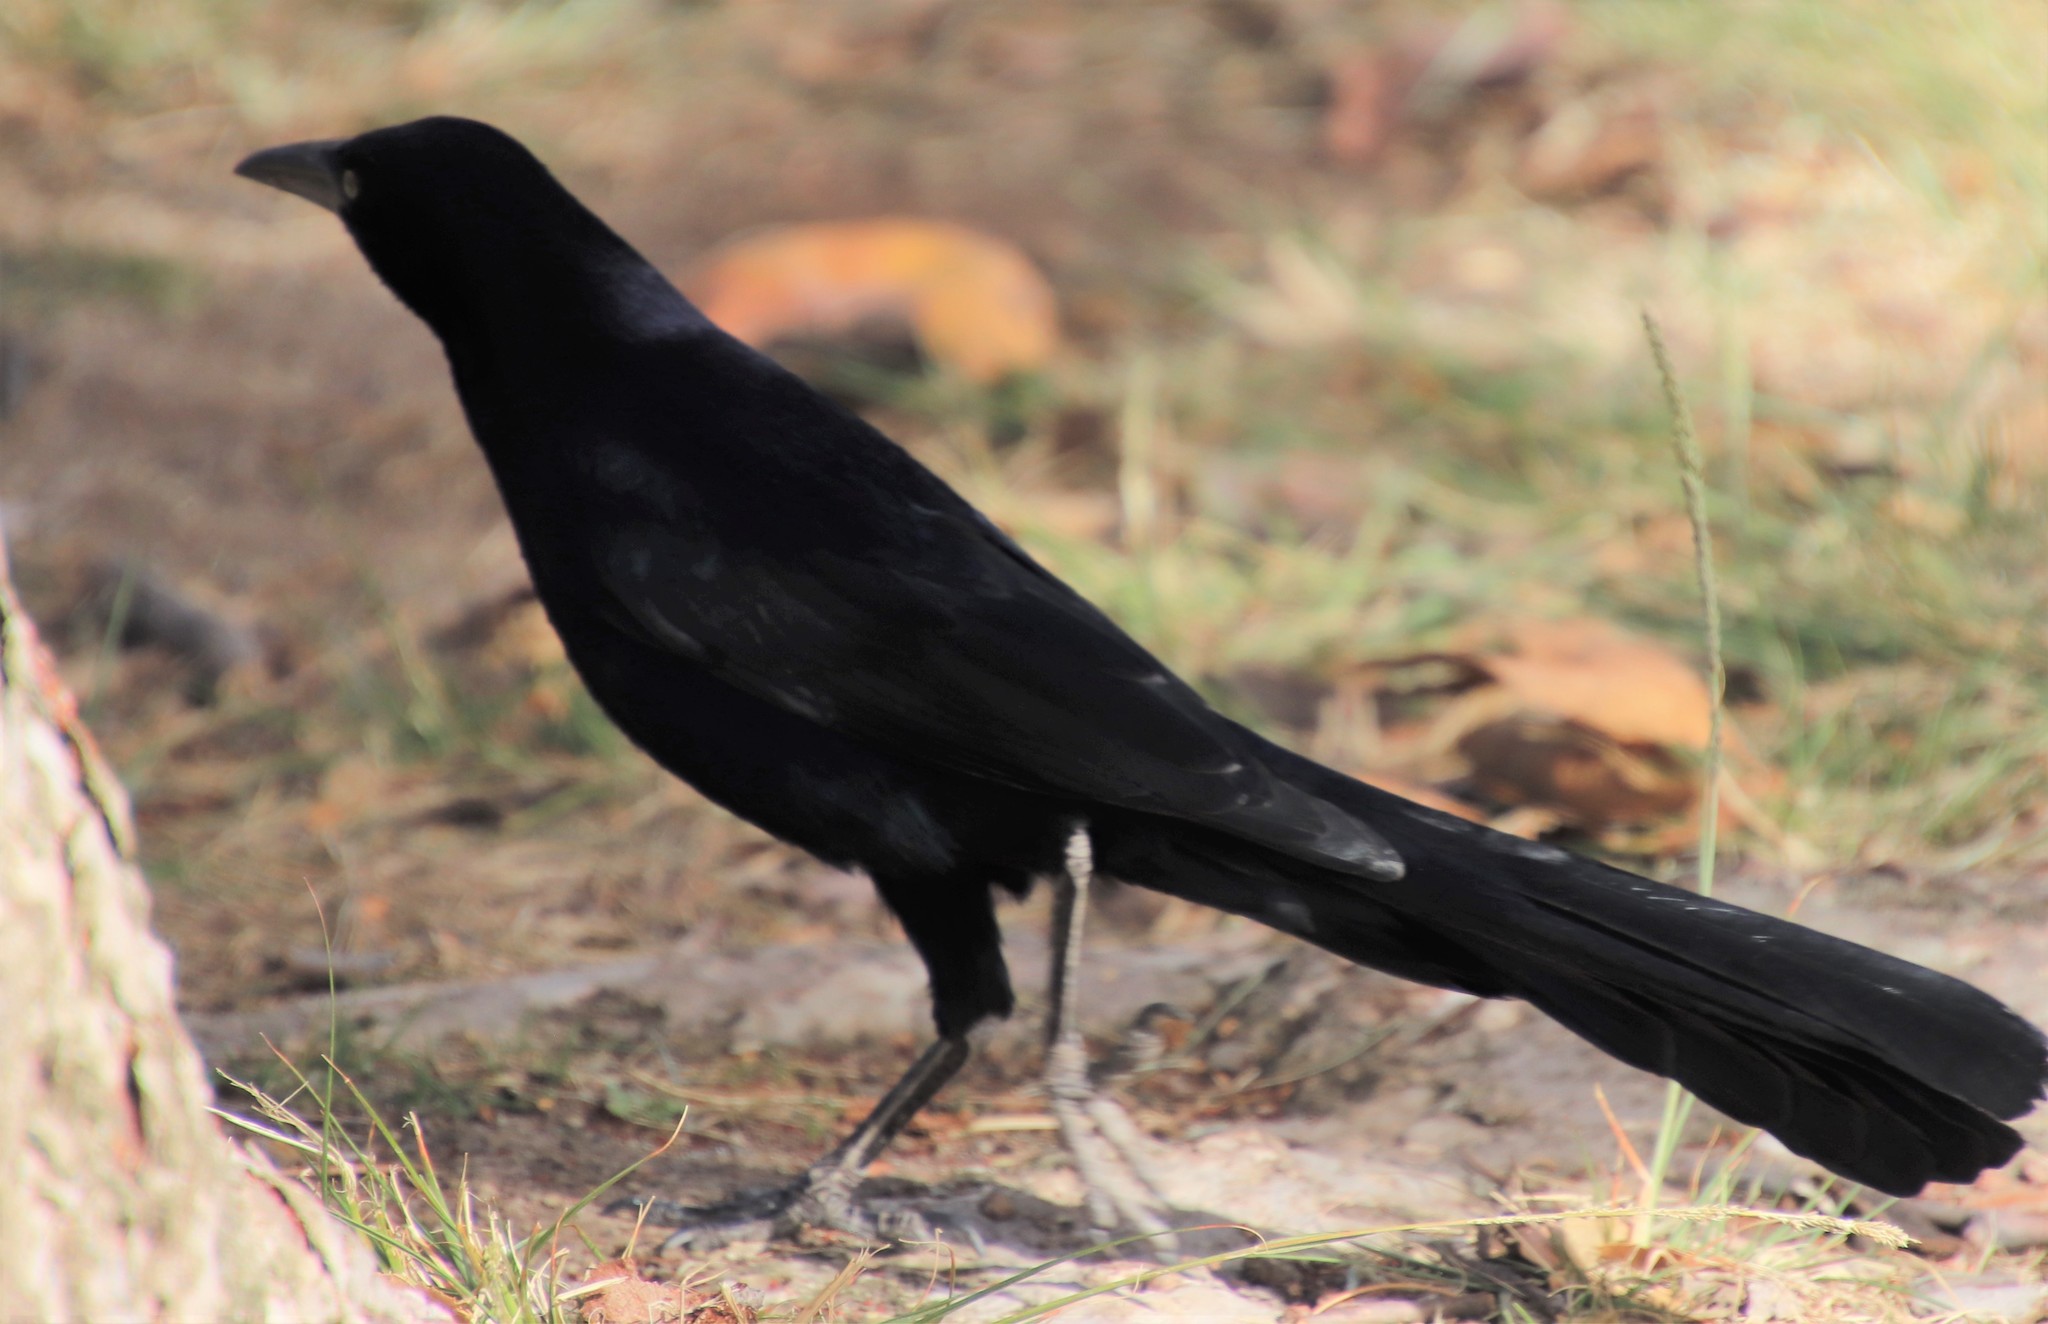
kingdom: Animalia
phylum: Chordata
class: Aves
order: Passeriformes
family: Icteridae
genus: Quiscalus
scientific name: Quiscalus mexicanus
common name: Great-tailed grackle
